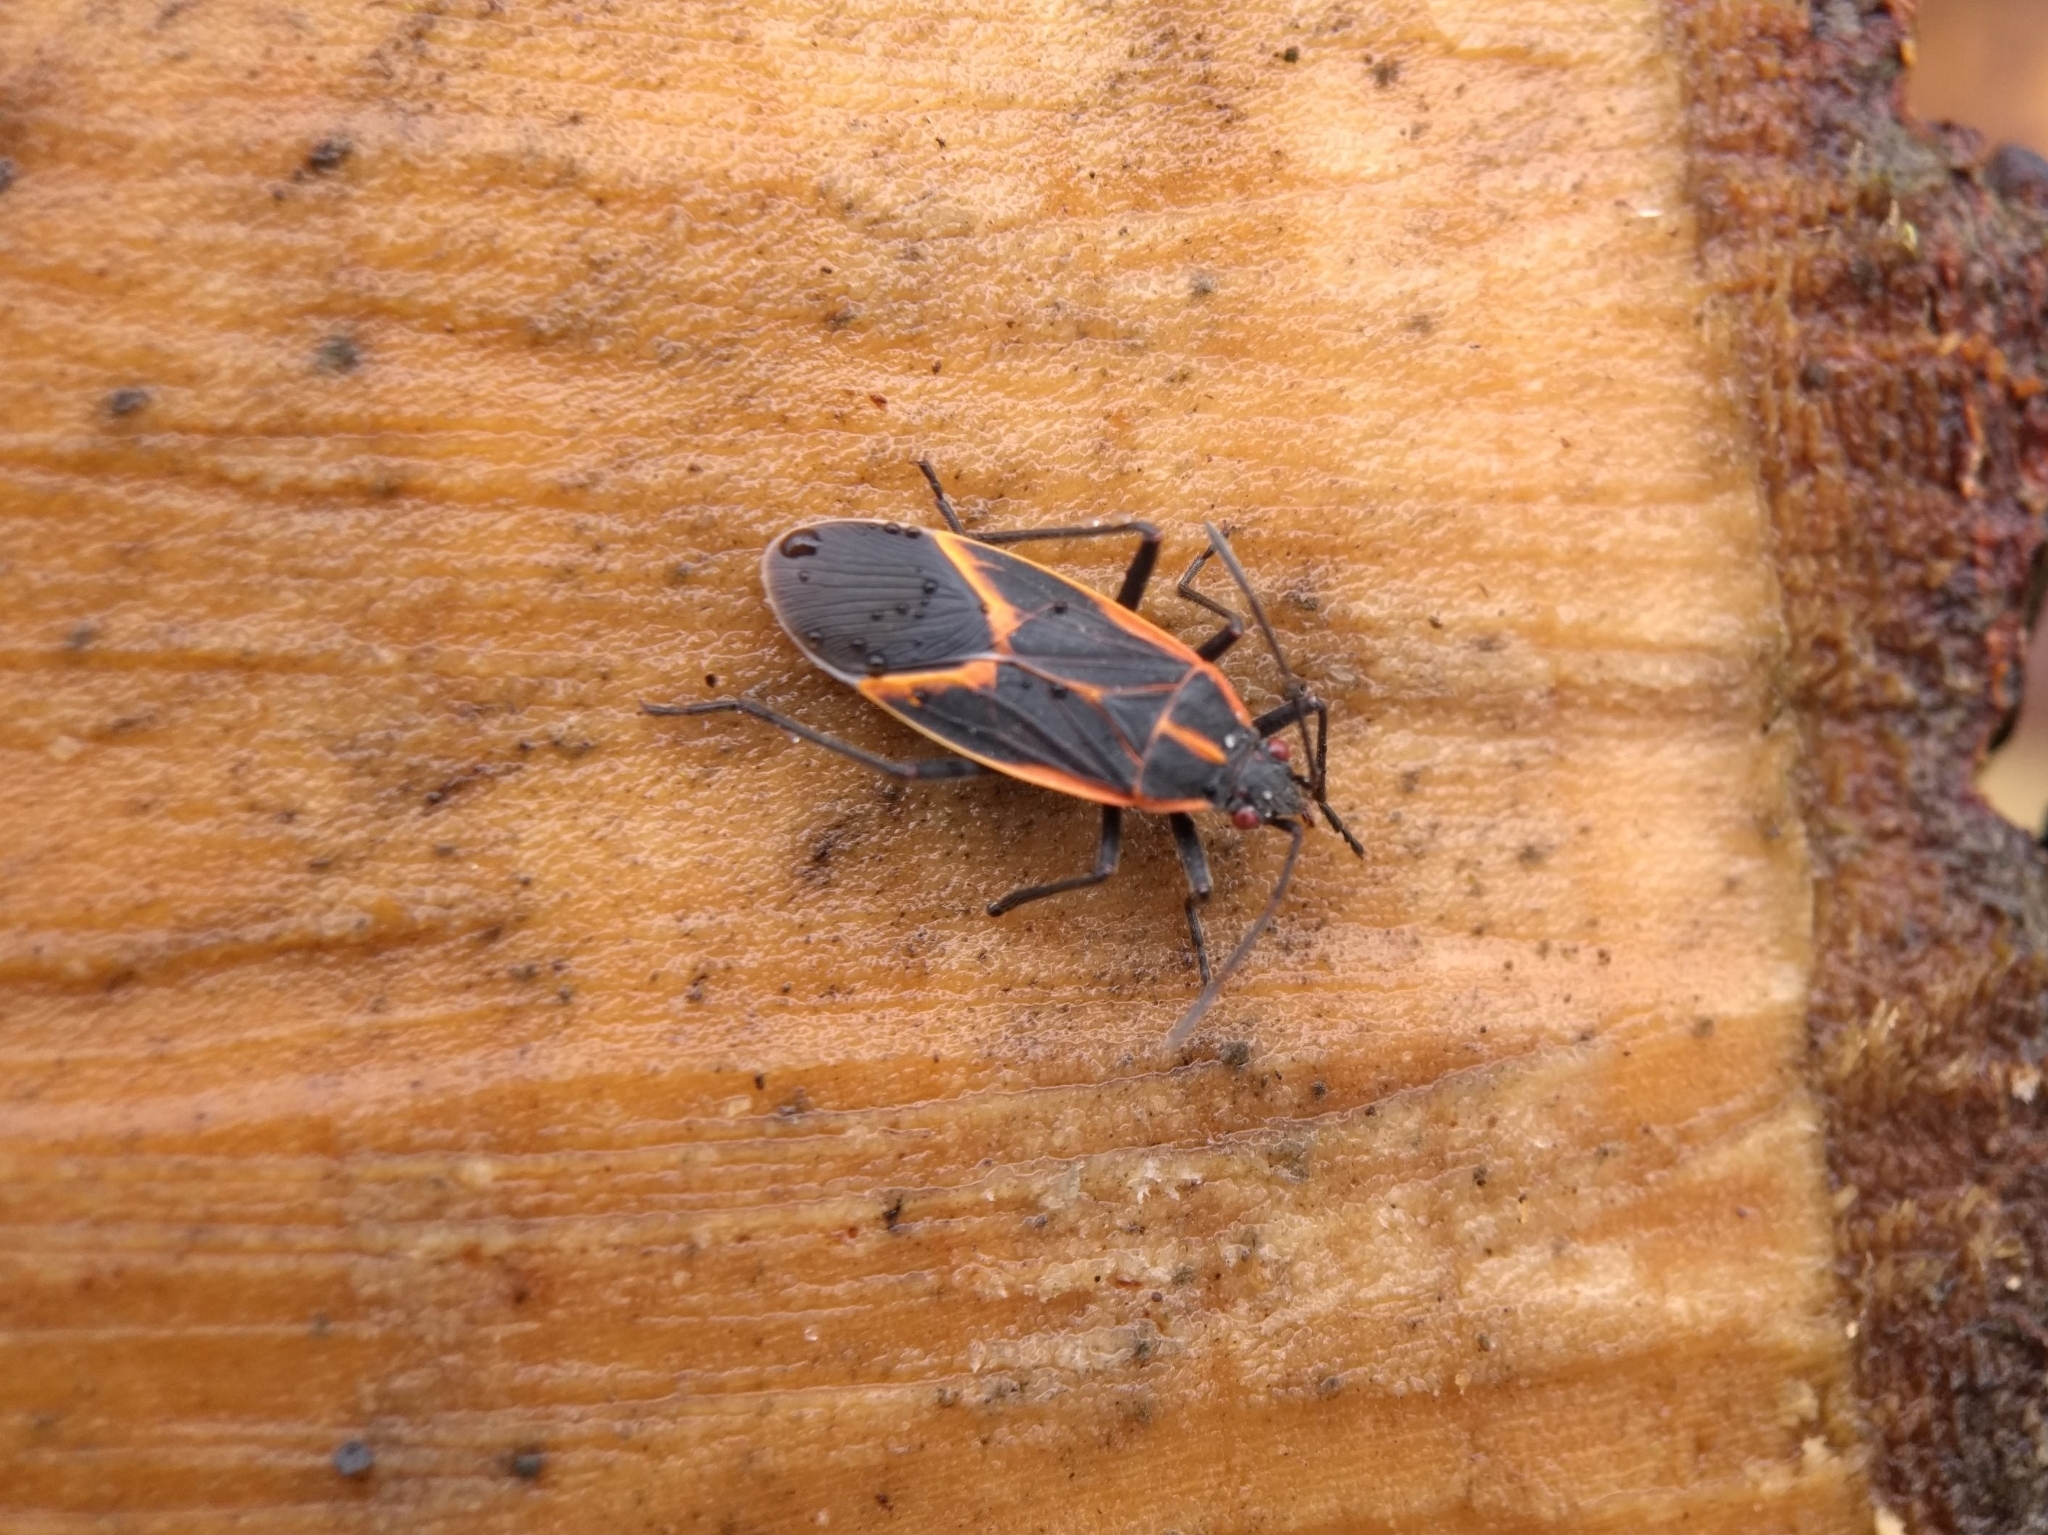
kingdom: Animalia
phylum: Arthropoda
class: Insecta
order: Hemiptera
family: Rhopalidae
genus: Boisea
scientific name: Boisea trivittata
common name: Boxelder bug
